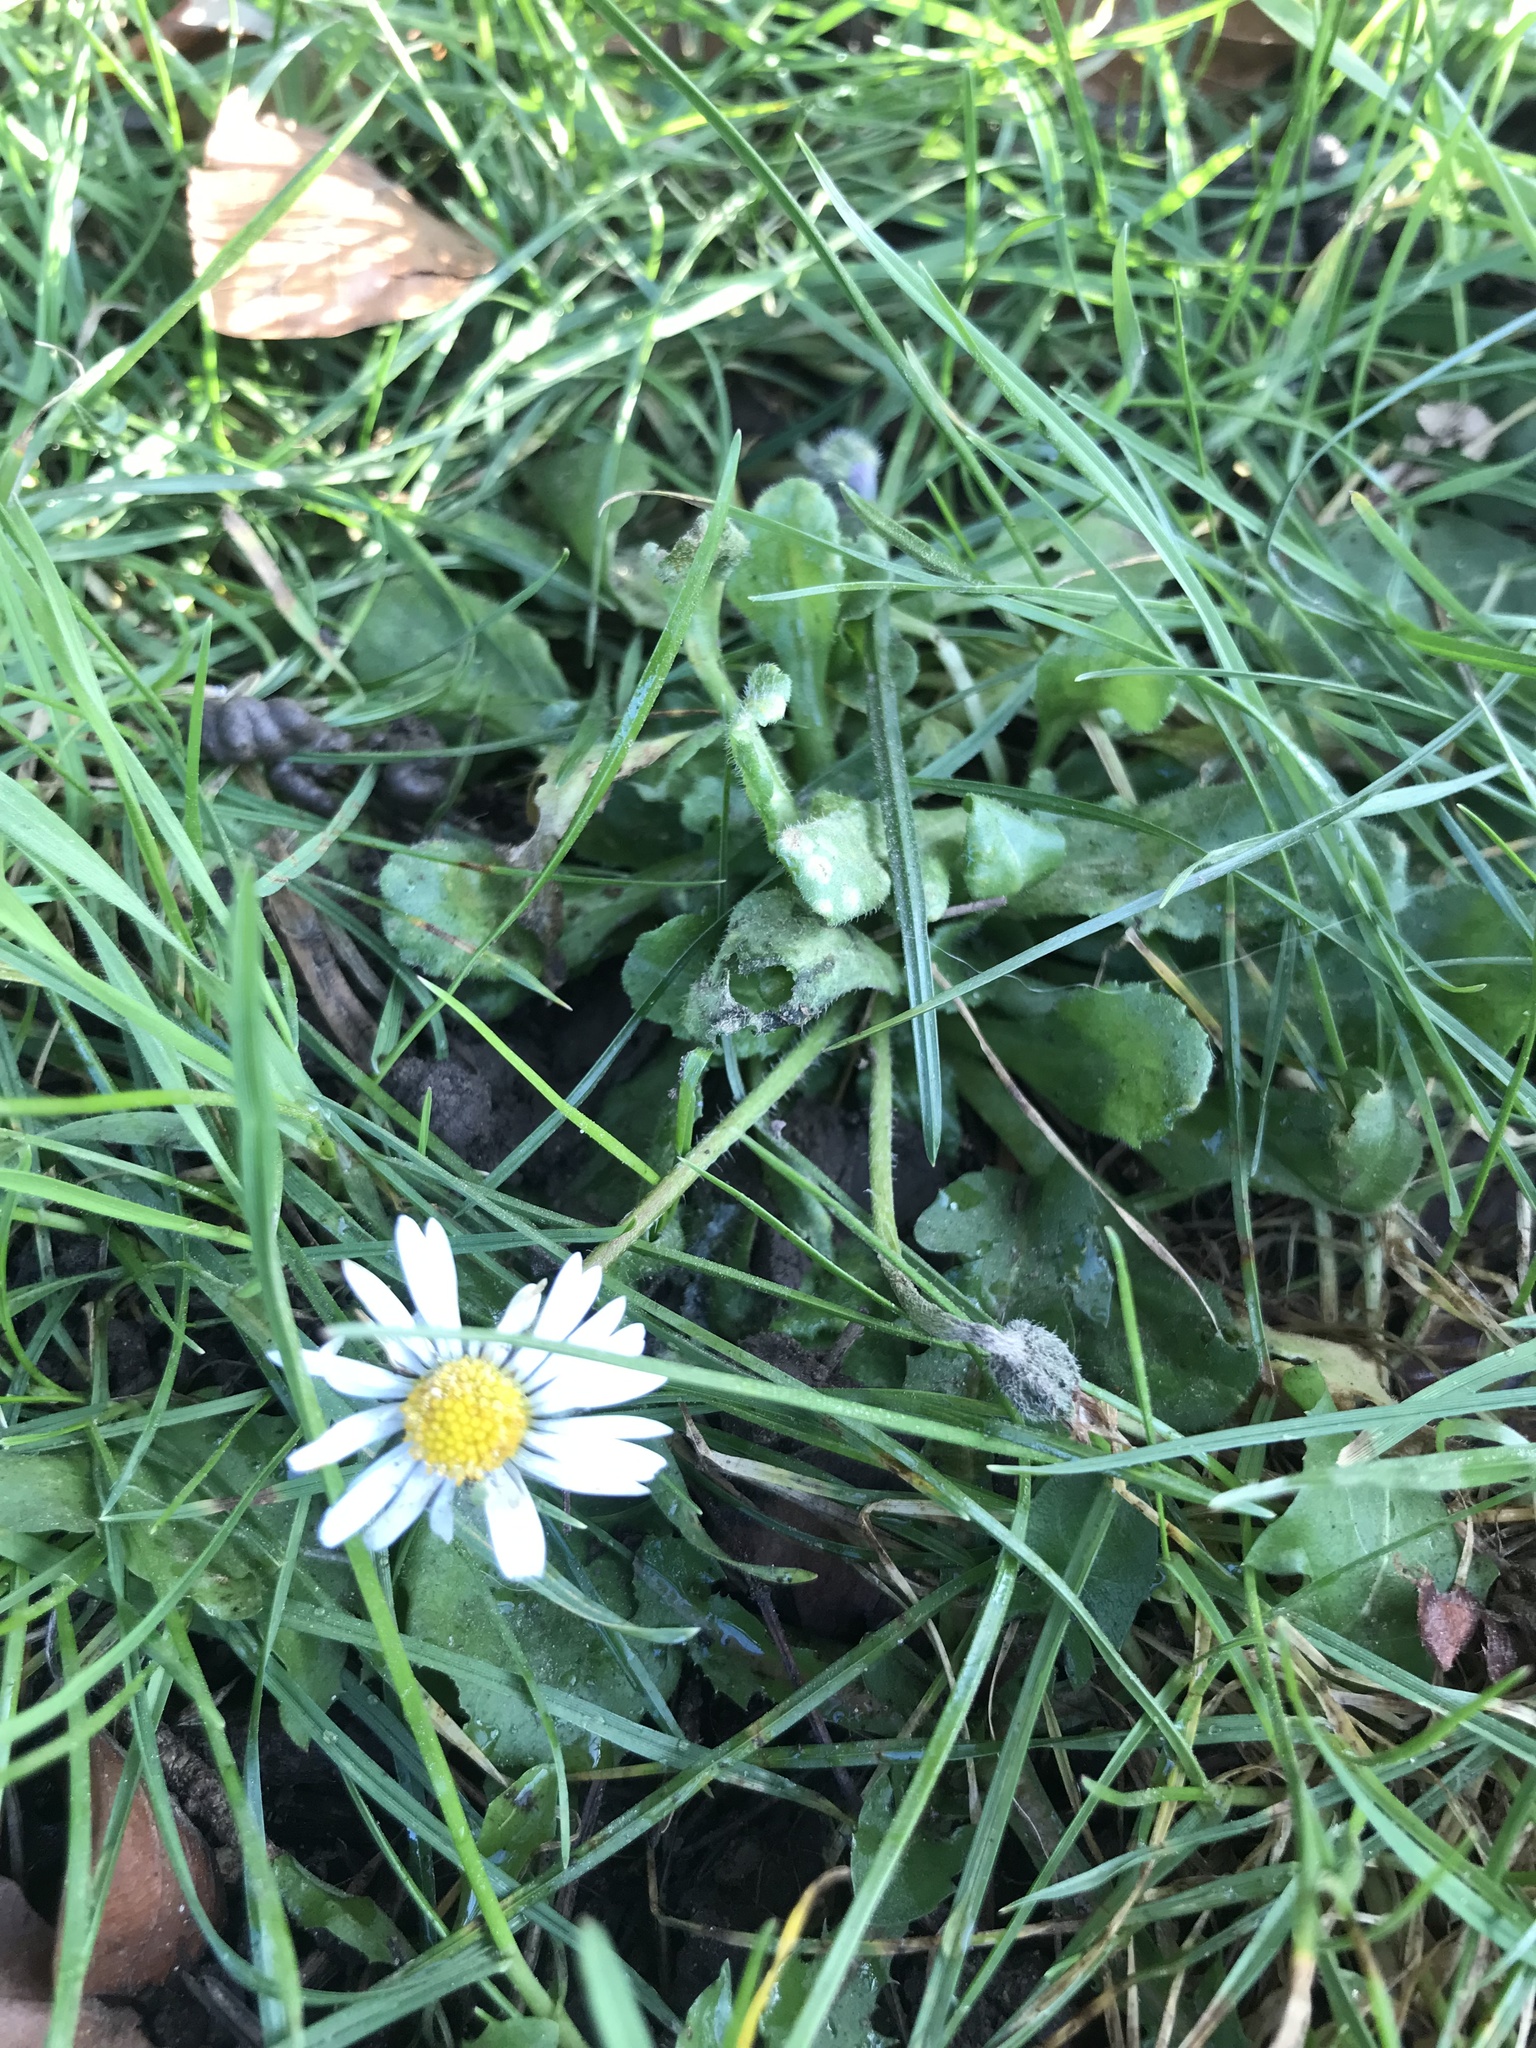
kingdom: Plantae
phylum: Tracheophyta
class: Magnoliopsida
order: Asterales
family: Asteraceae
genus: Bellis
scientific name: Bellis perennis
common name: Lawndaisy
